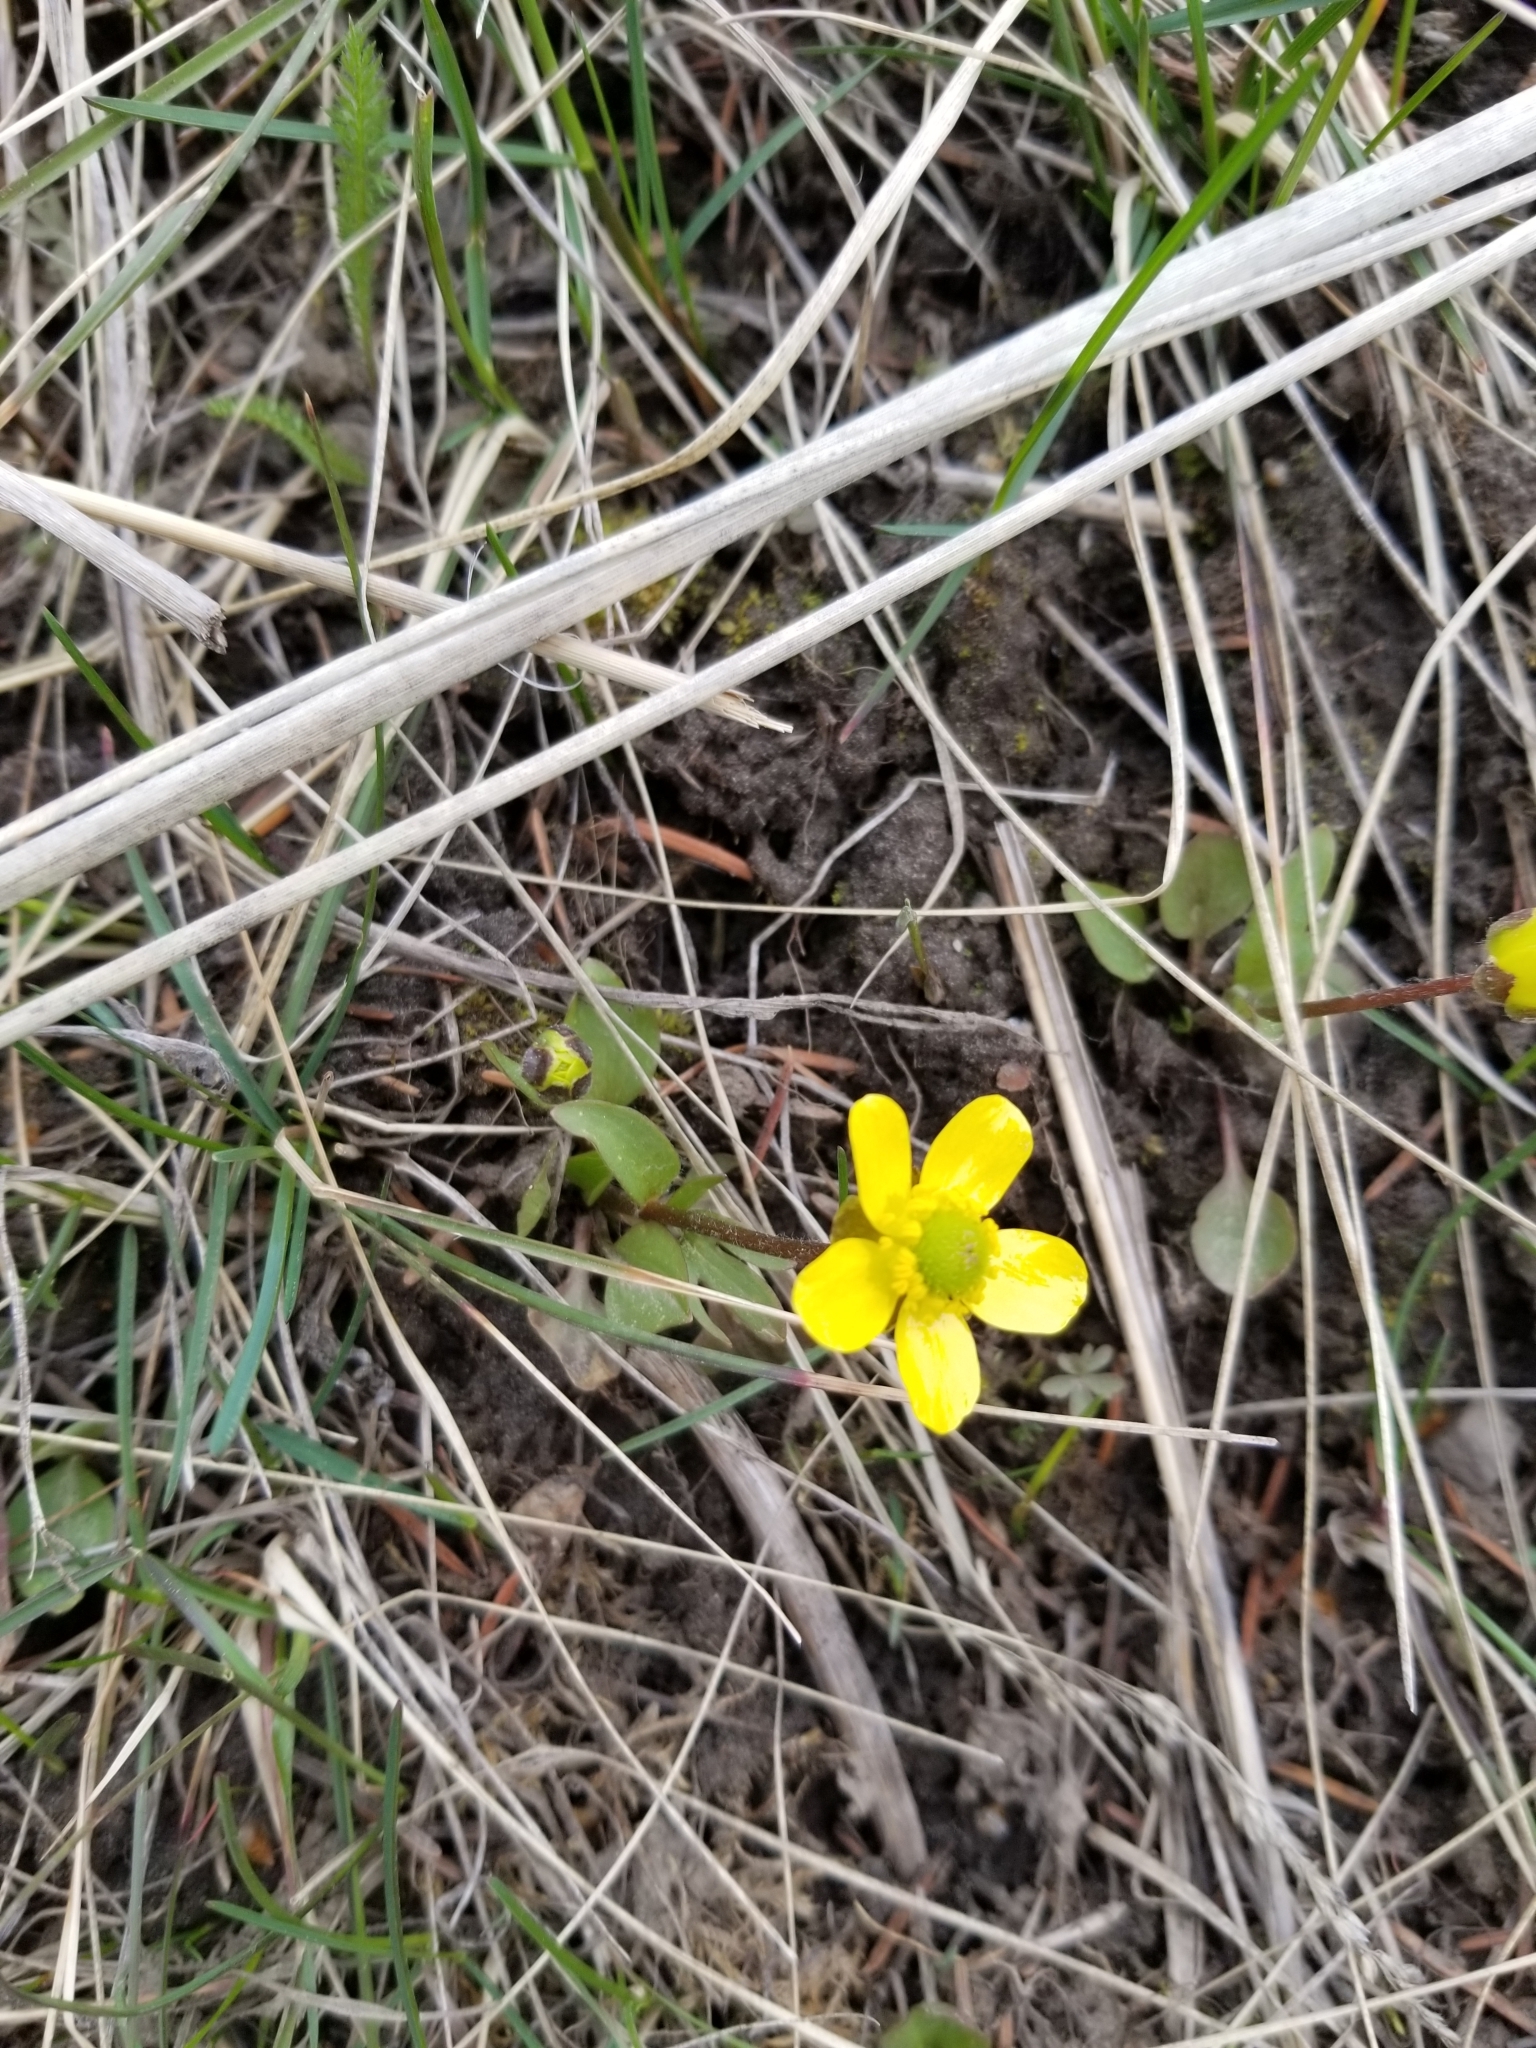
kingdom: Plantae
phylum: Tracheophyta
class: Magnoliopsida
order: Ranunculales
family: Ranunculaceae
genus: Ranunculus
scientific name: Ranunculus glaberrimus
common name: Sagebrush buttercup
